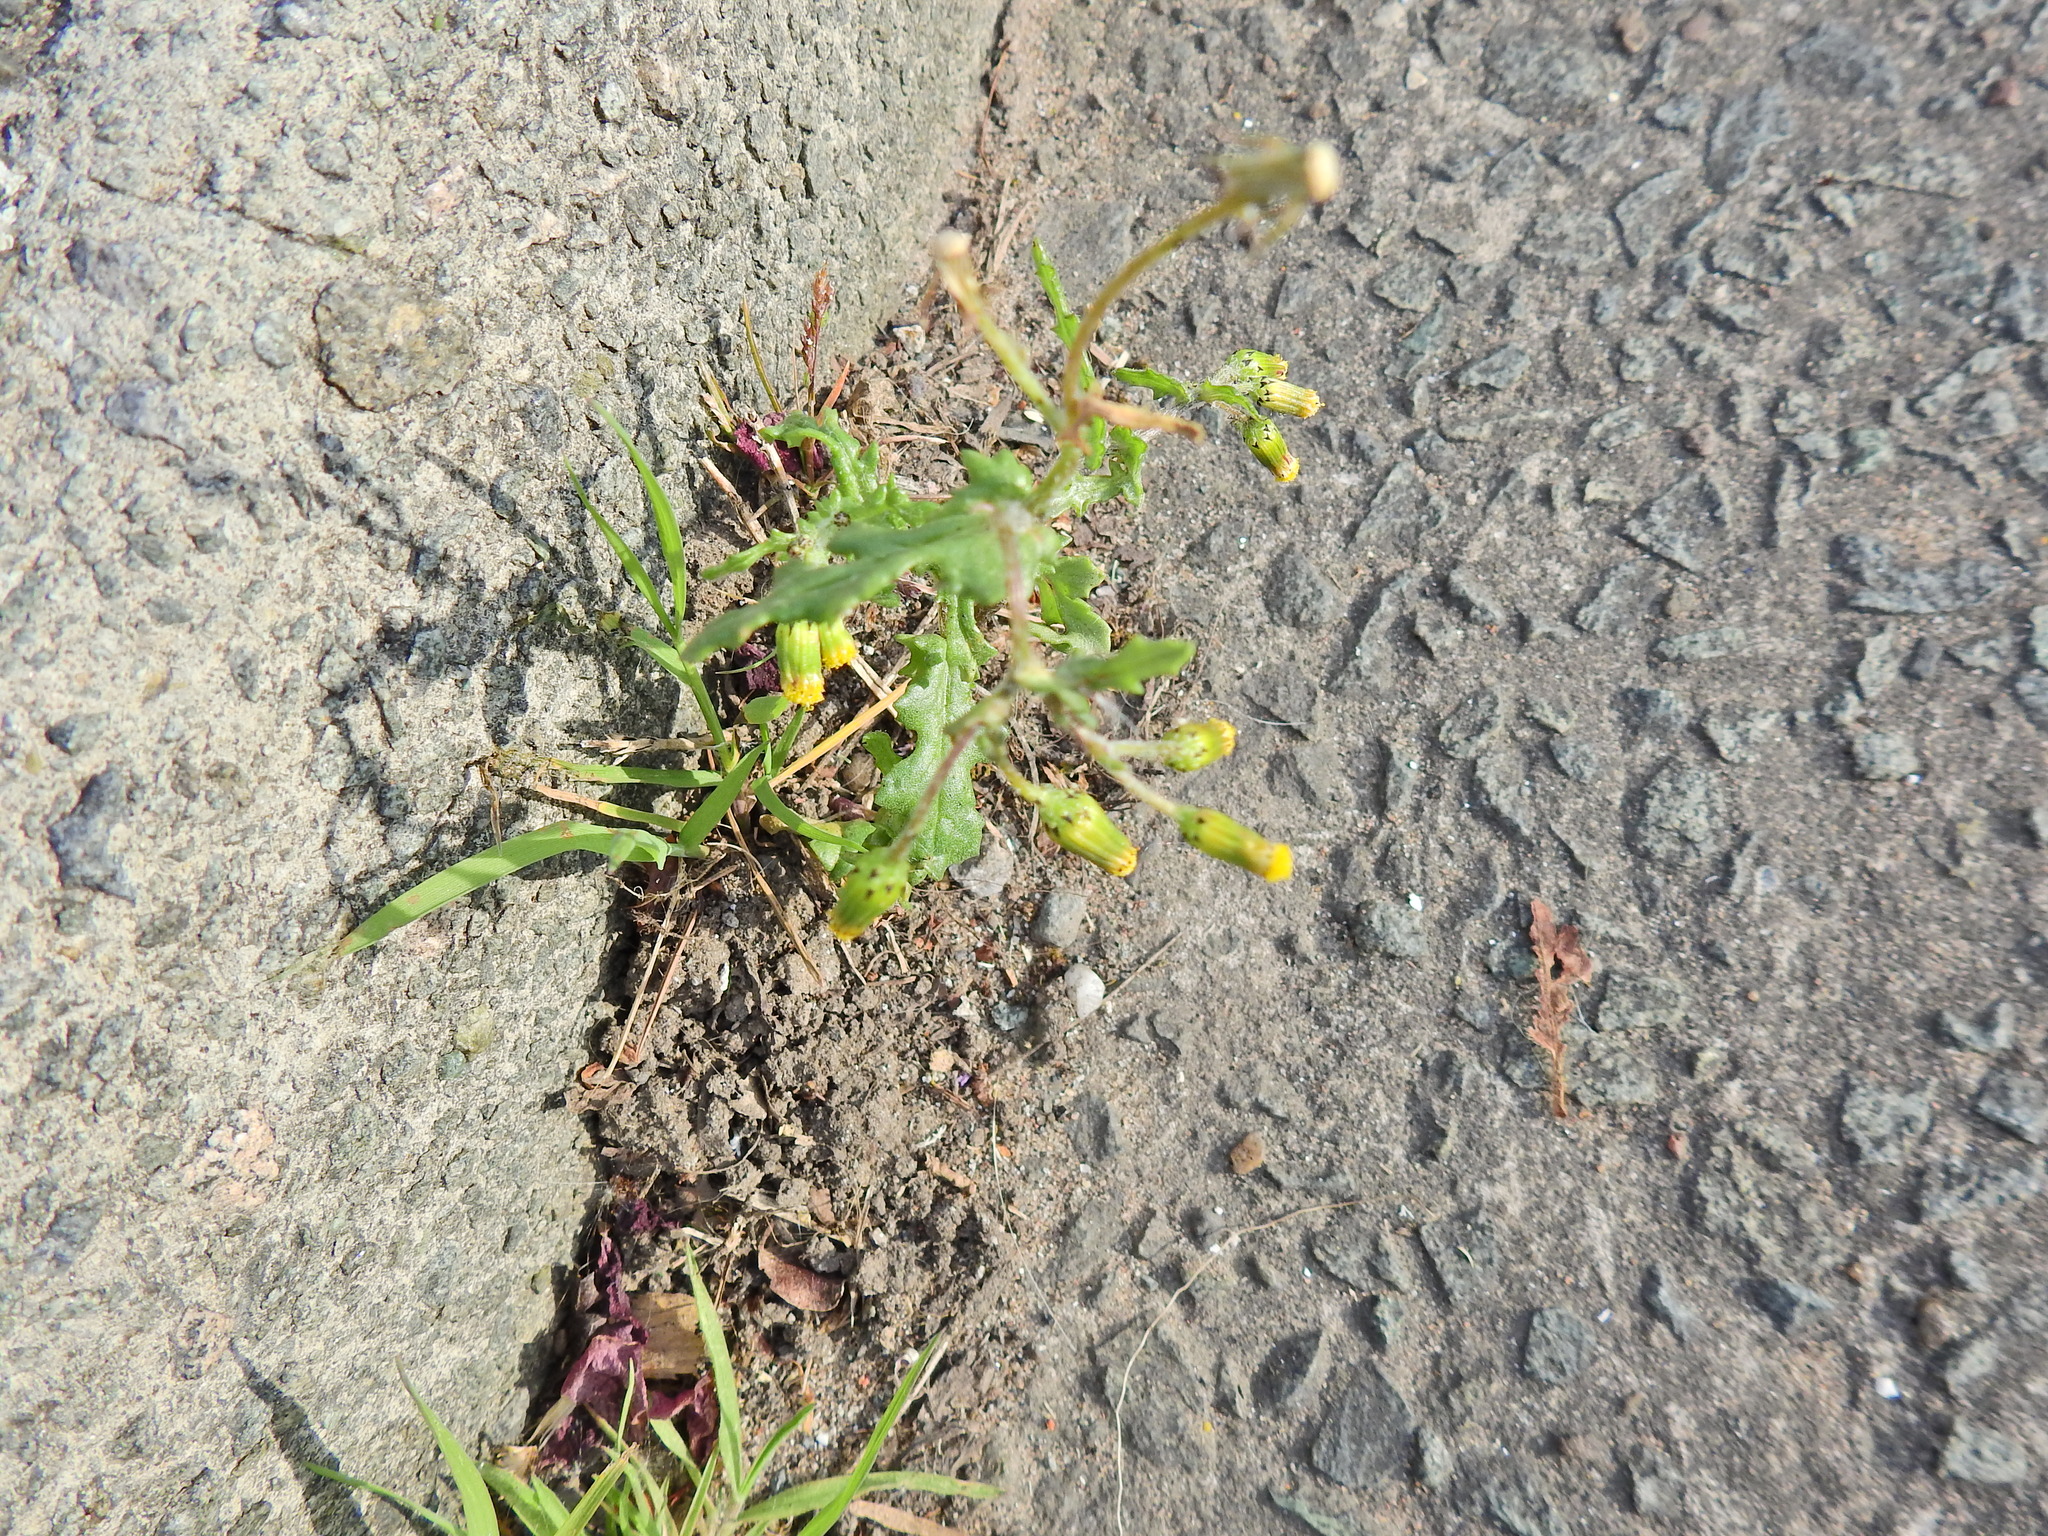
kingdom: Plantae
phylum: Tracheophyta
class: Magnoliopsida
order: Asterales
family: Asteraceae
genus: Senecio
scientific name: Senecio vulgaris
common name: Old-man-in-the-spring
